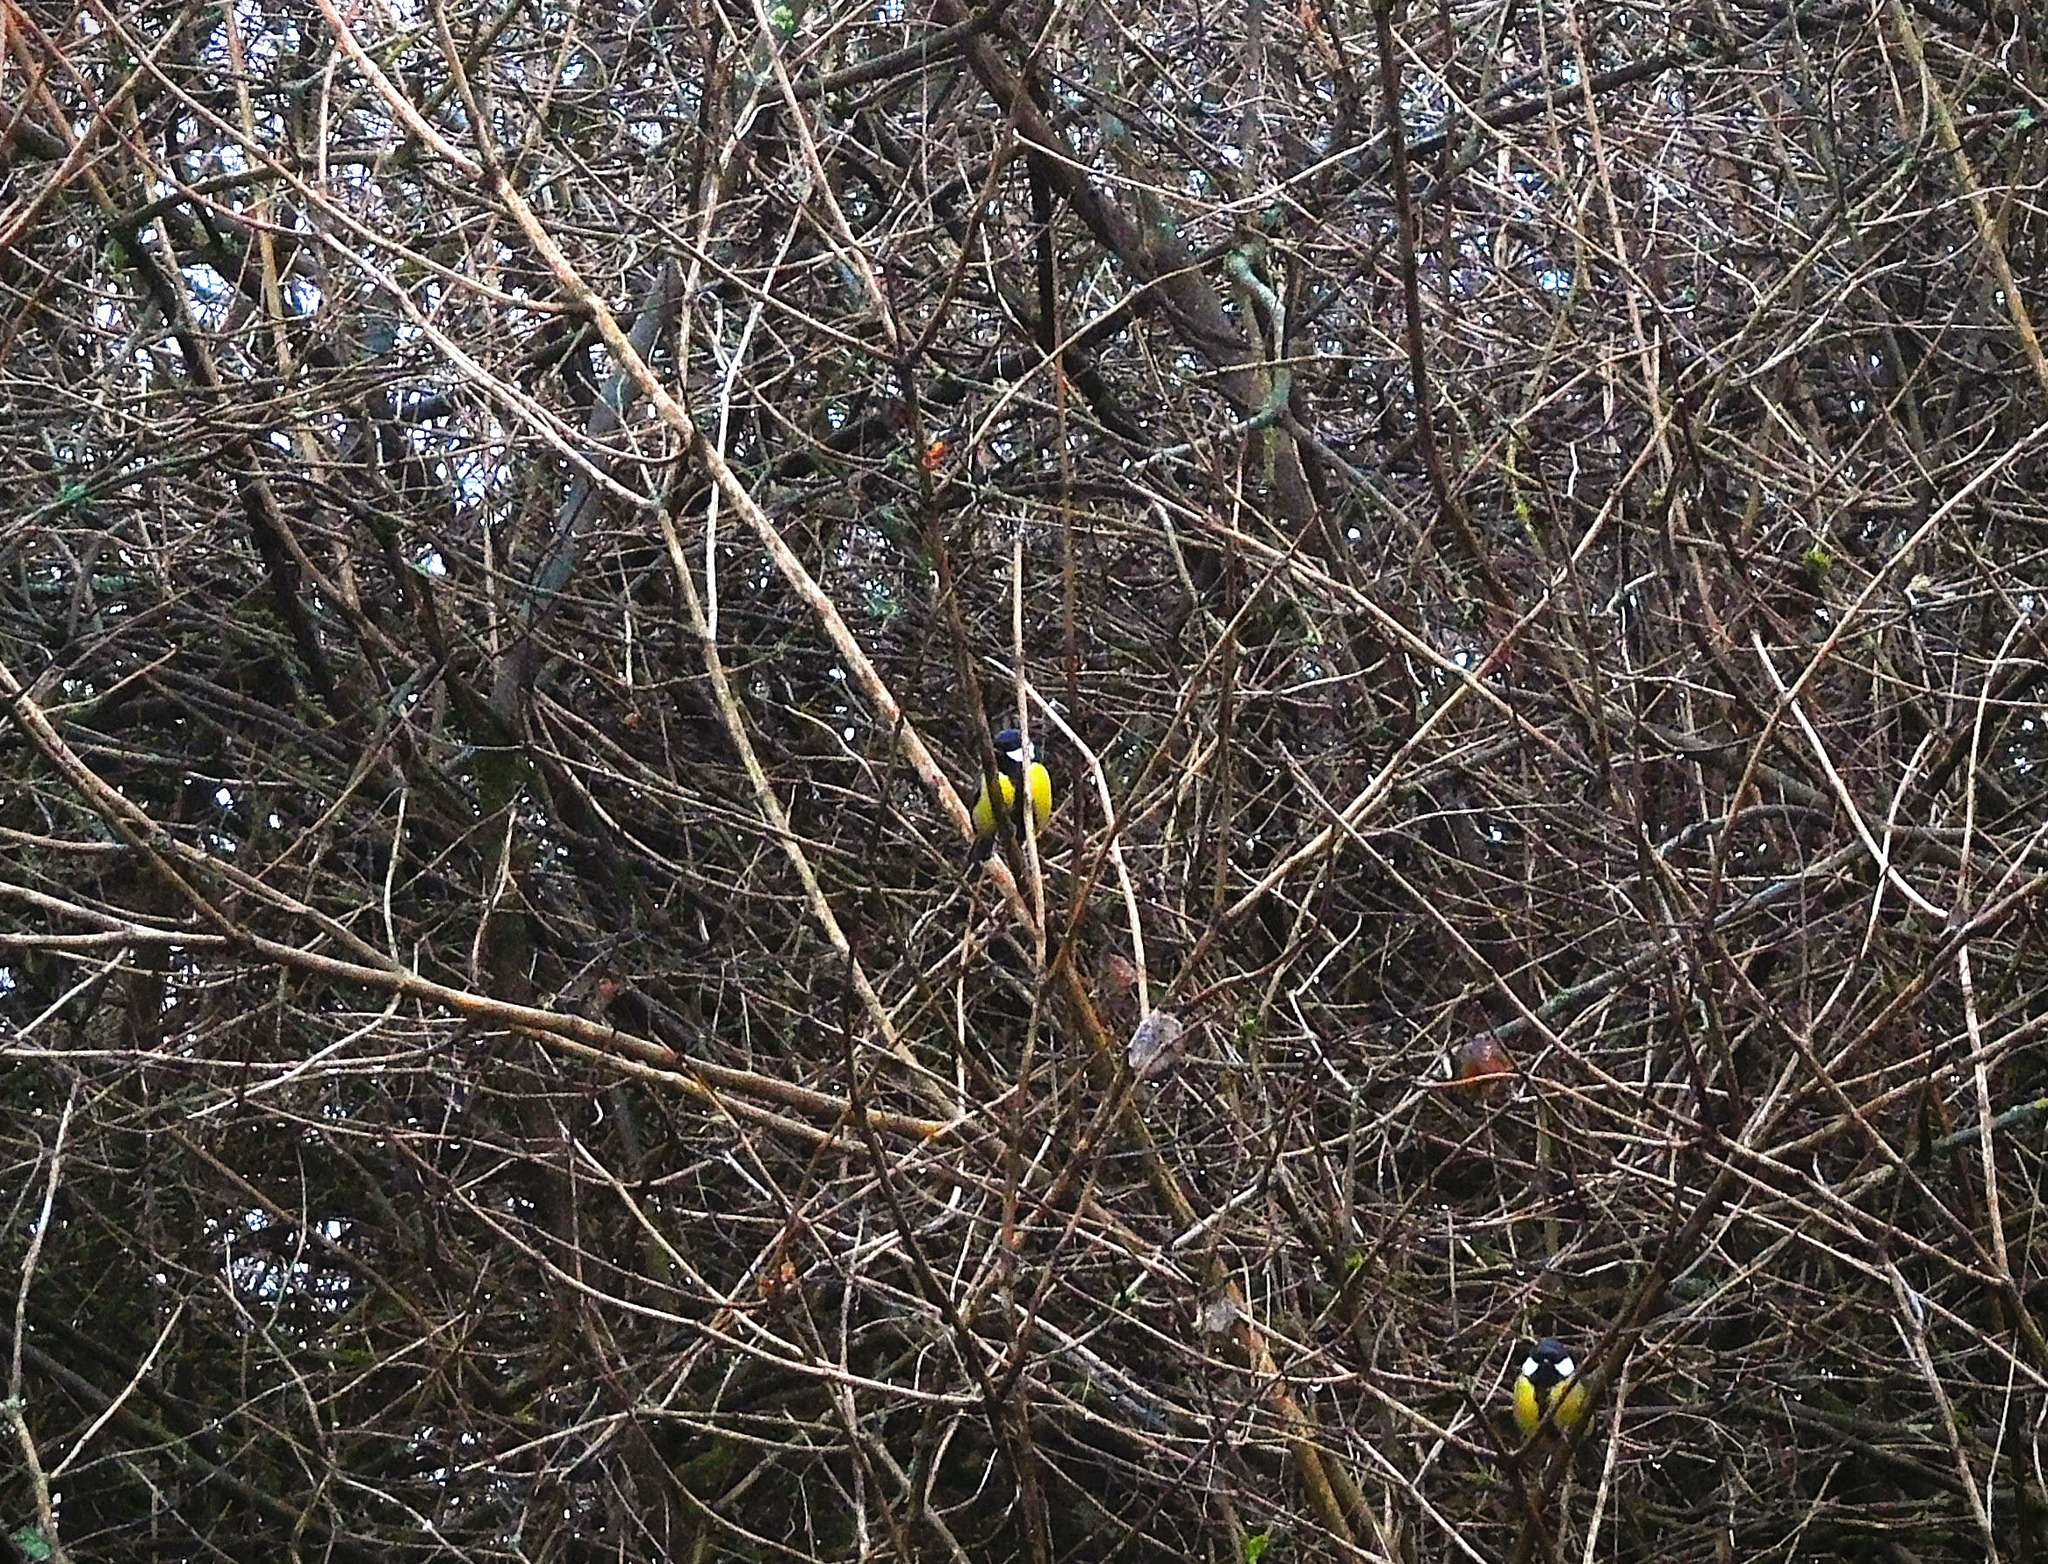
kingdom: Animalia
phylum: Chordata
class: Aves
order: Passeriformes
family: Paridae
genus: Parus
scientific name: Parus major
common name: Great tit
